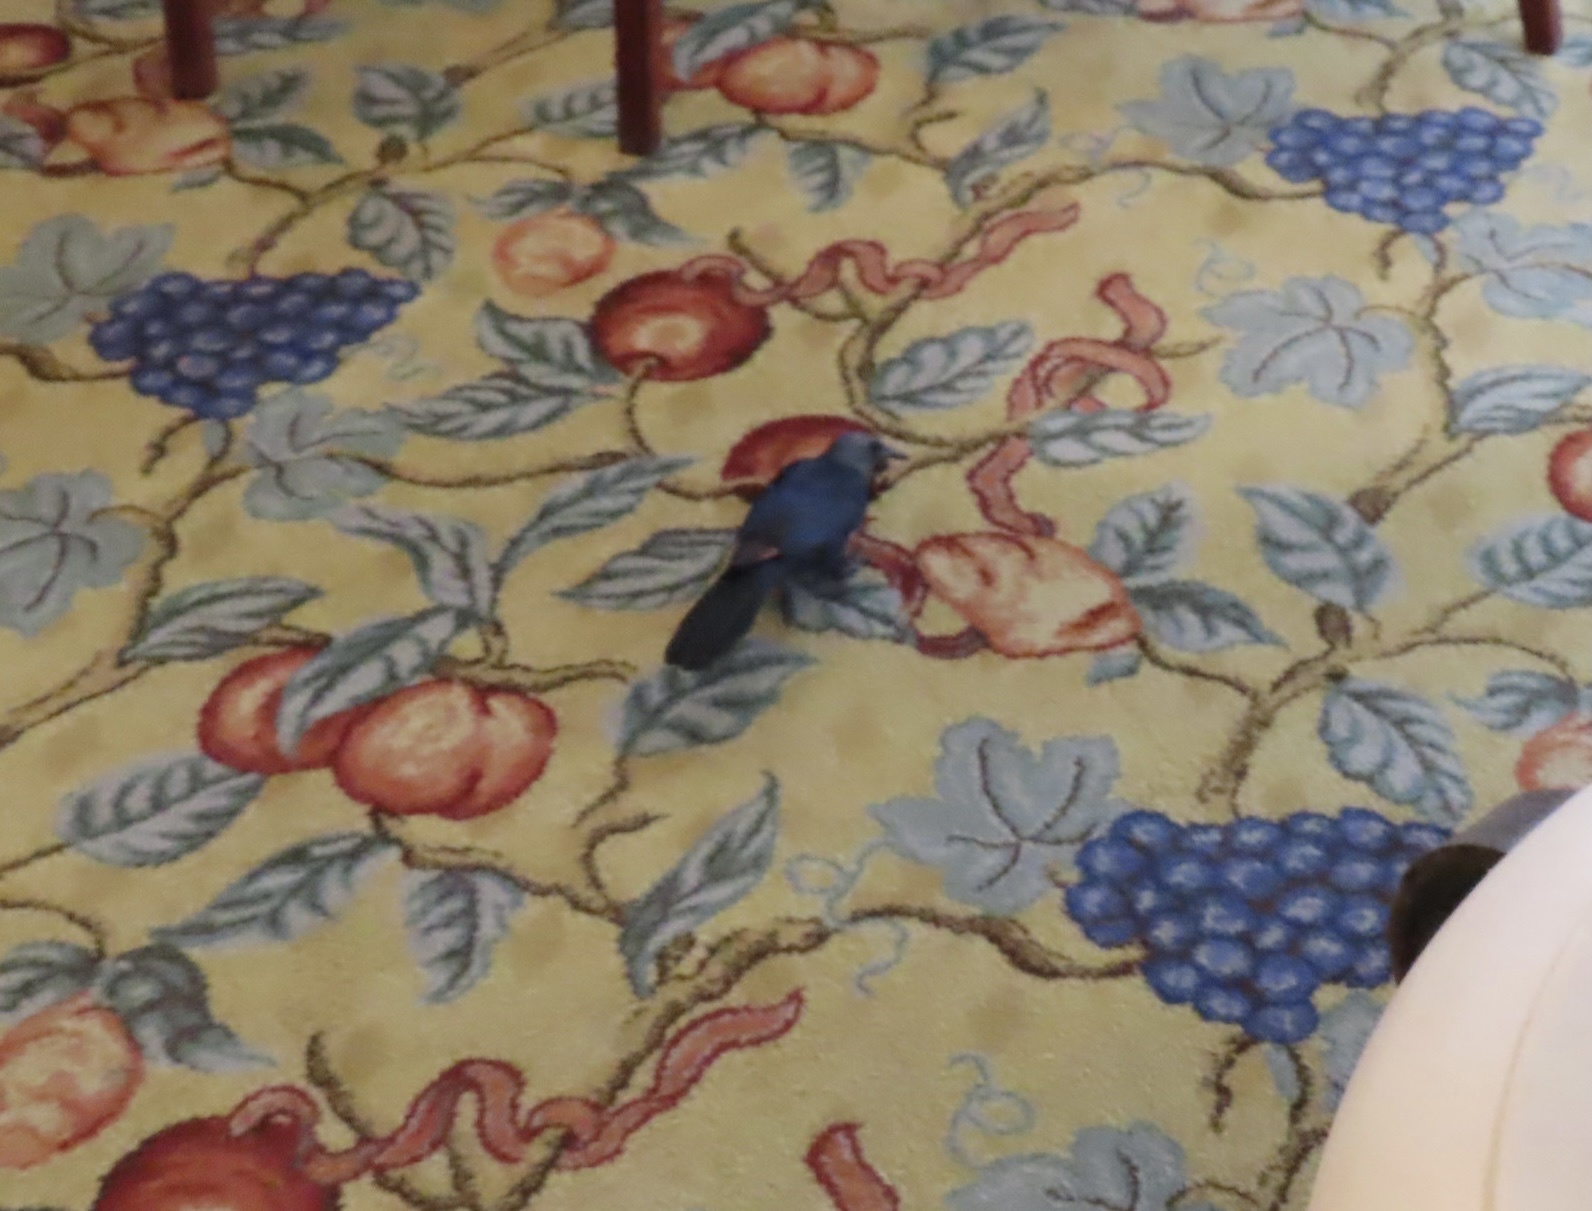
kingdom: Animalia
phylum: Chordata
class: Aves
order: Passeriformes
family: Sturnidae
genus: Onychognathus
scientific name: Onychognathus morio
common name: Red-winged starling
